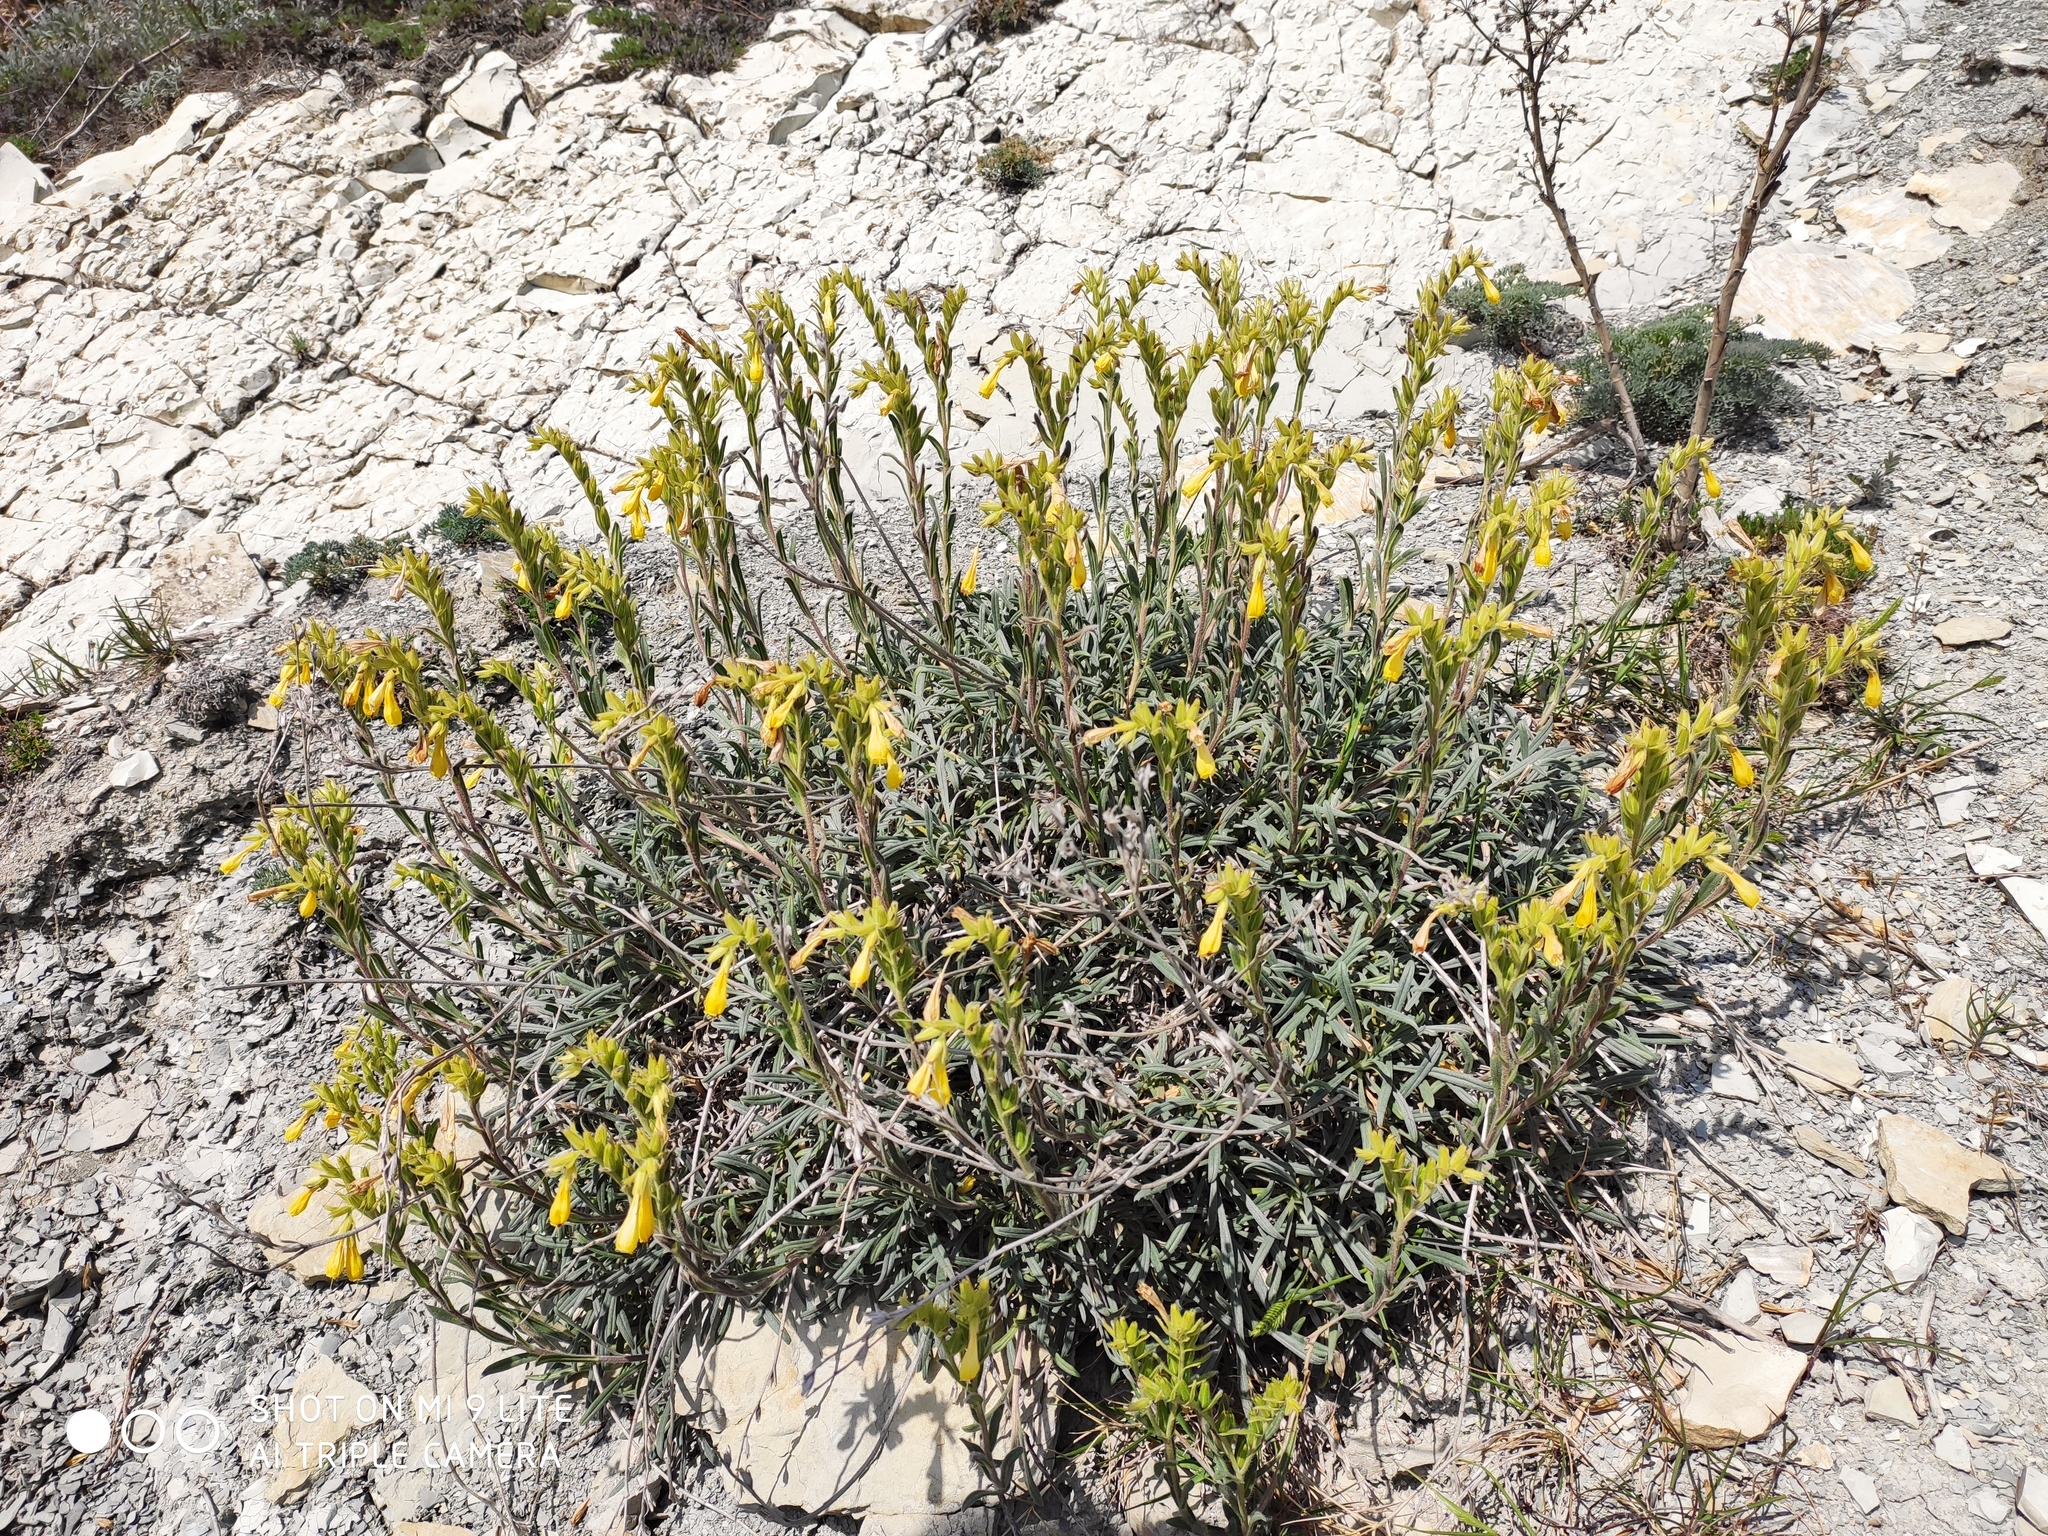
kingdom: Plantae
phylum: Tracheophyta
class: Magnoliopsida
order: Boraginales
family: Boraginaceae
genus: Onosma
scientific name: Onosma taurica
